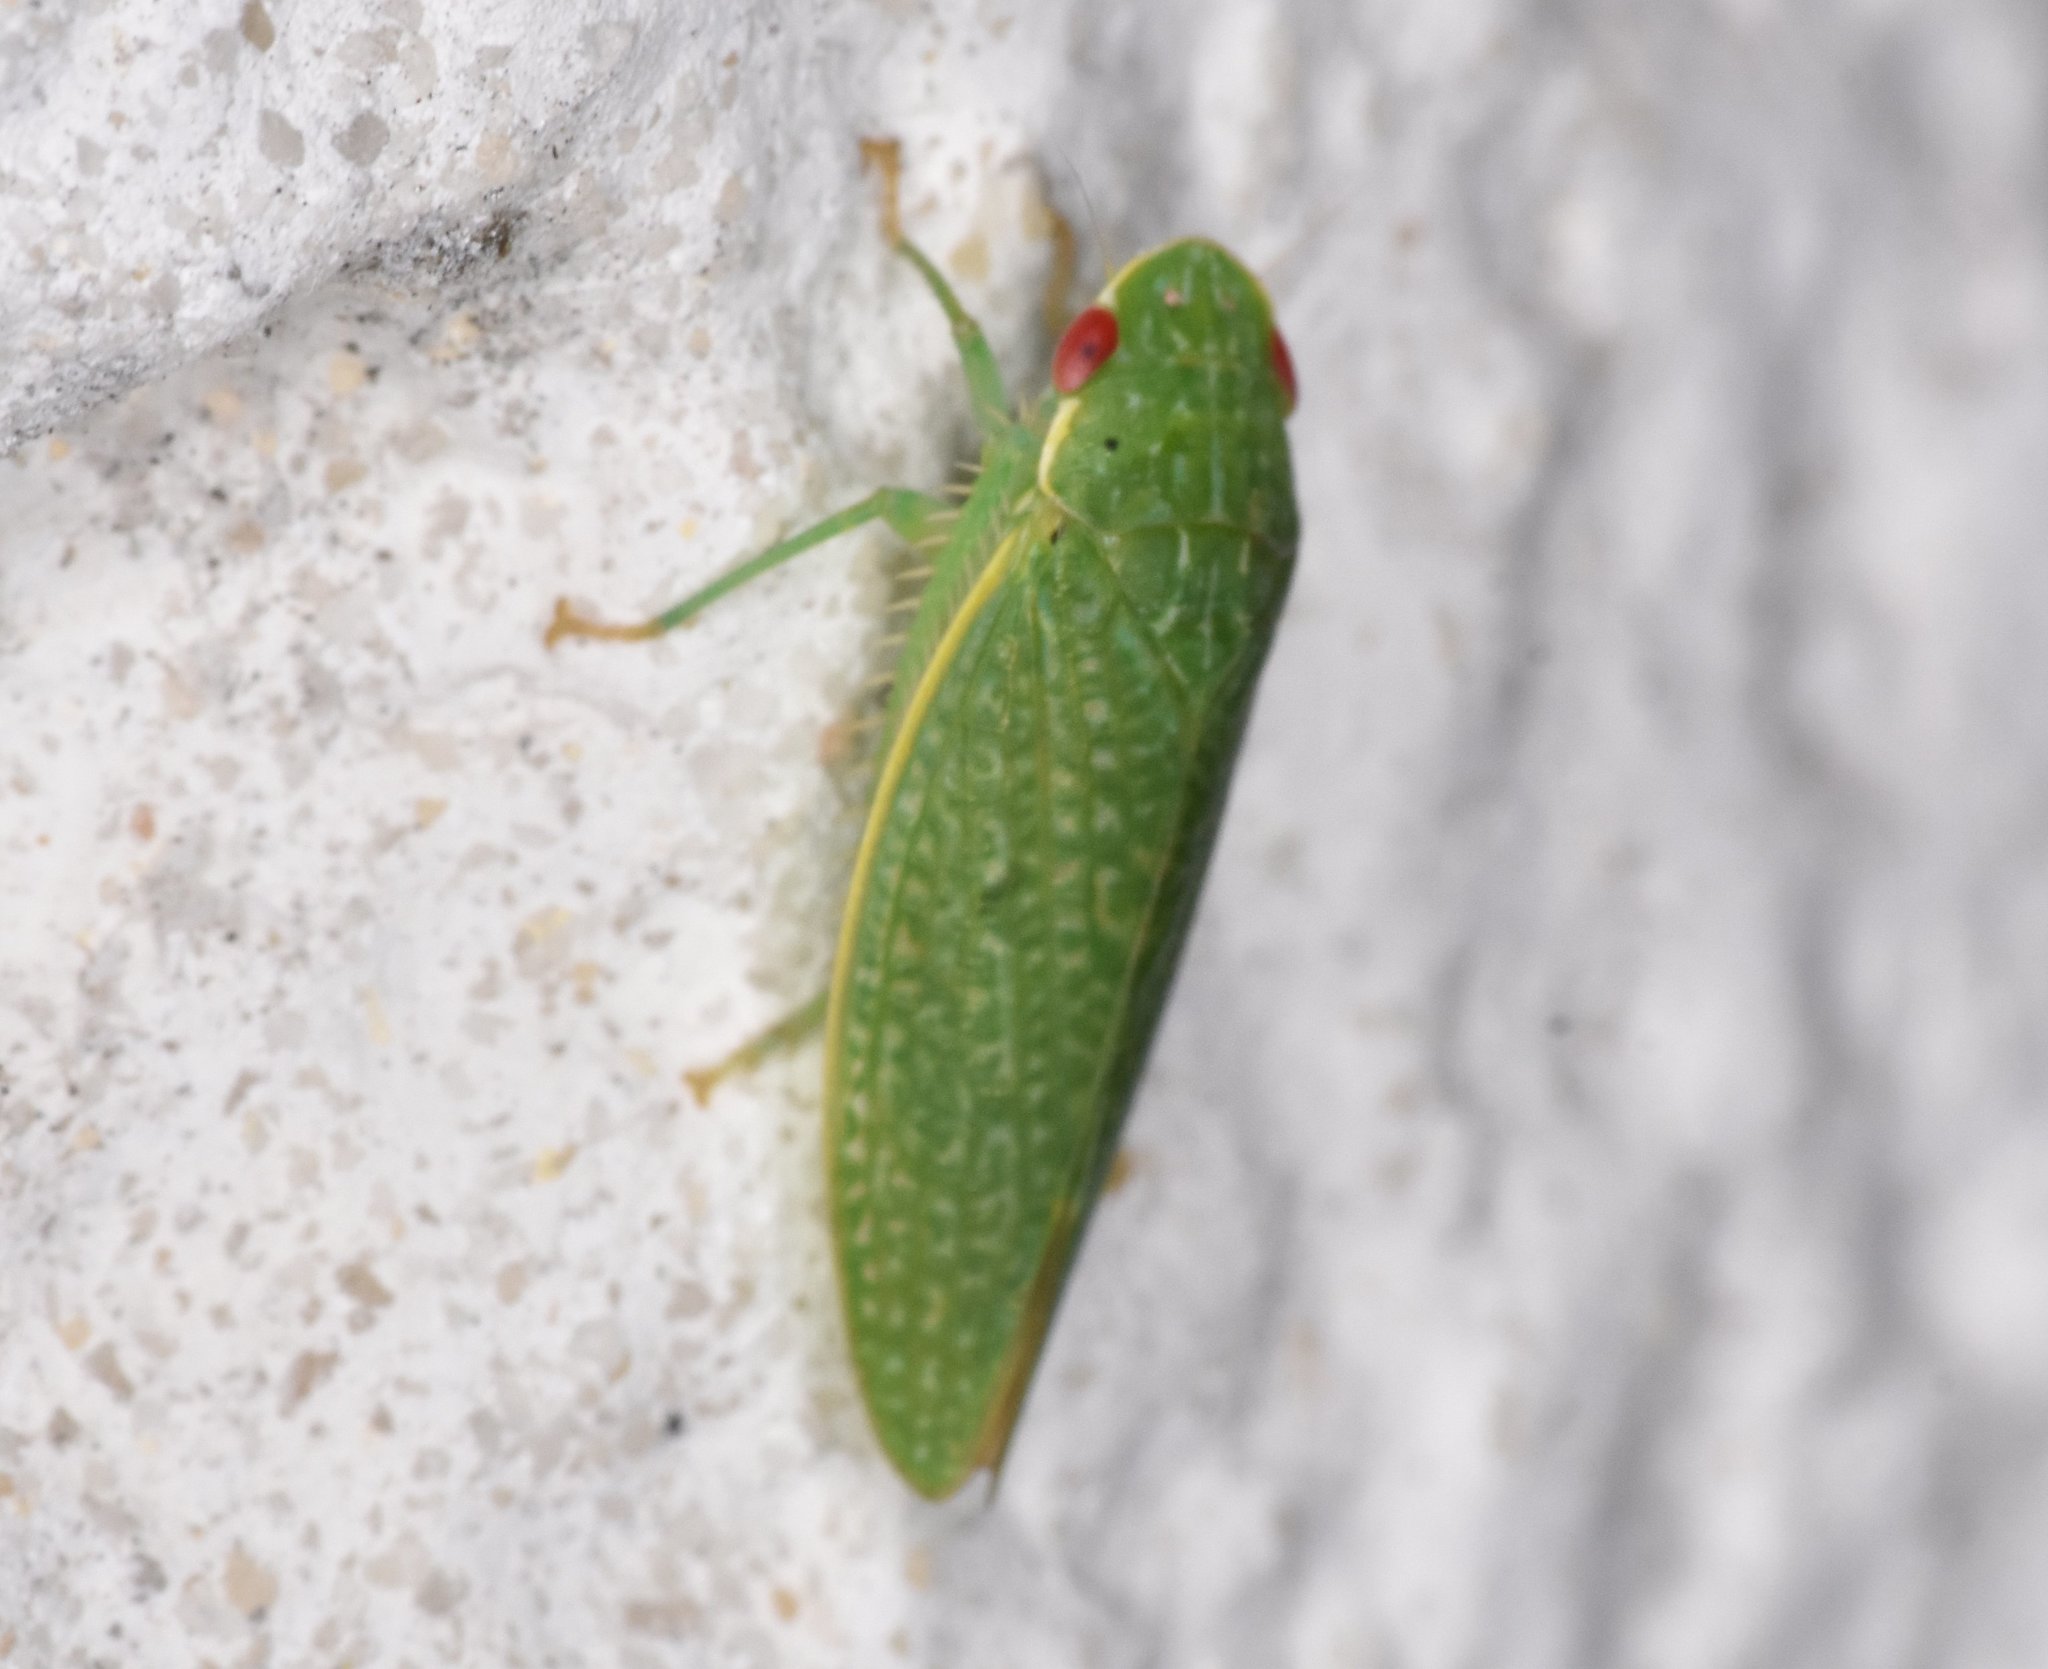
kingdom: Animalia
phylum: Arthropoda
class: Insecta
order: Hemiptera
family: Cicadellidae
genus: Rugosana
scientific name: Rugosana querci
